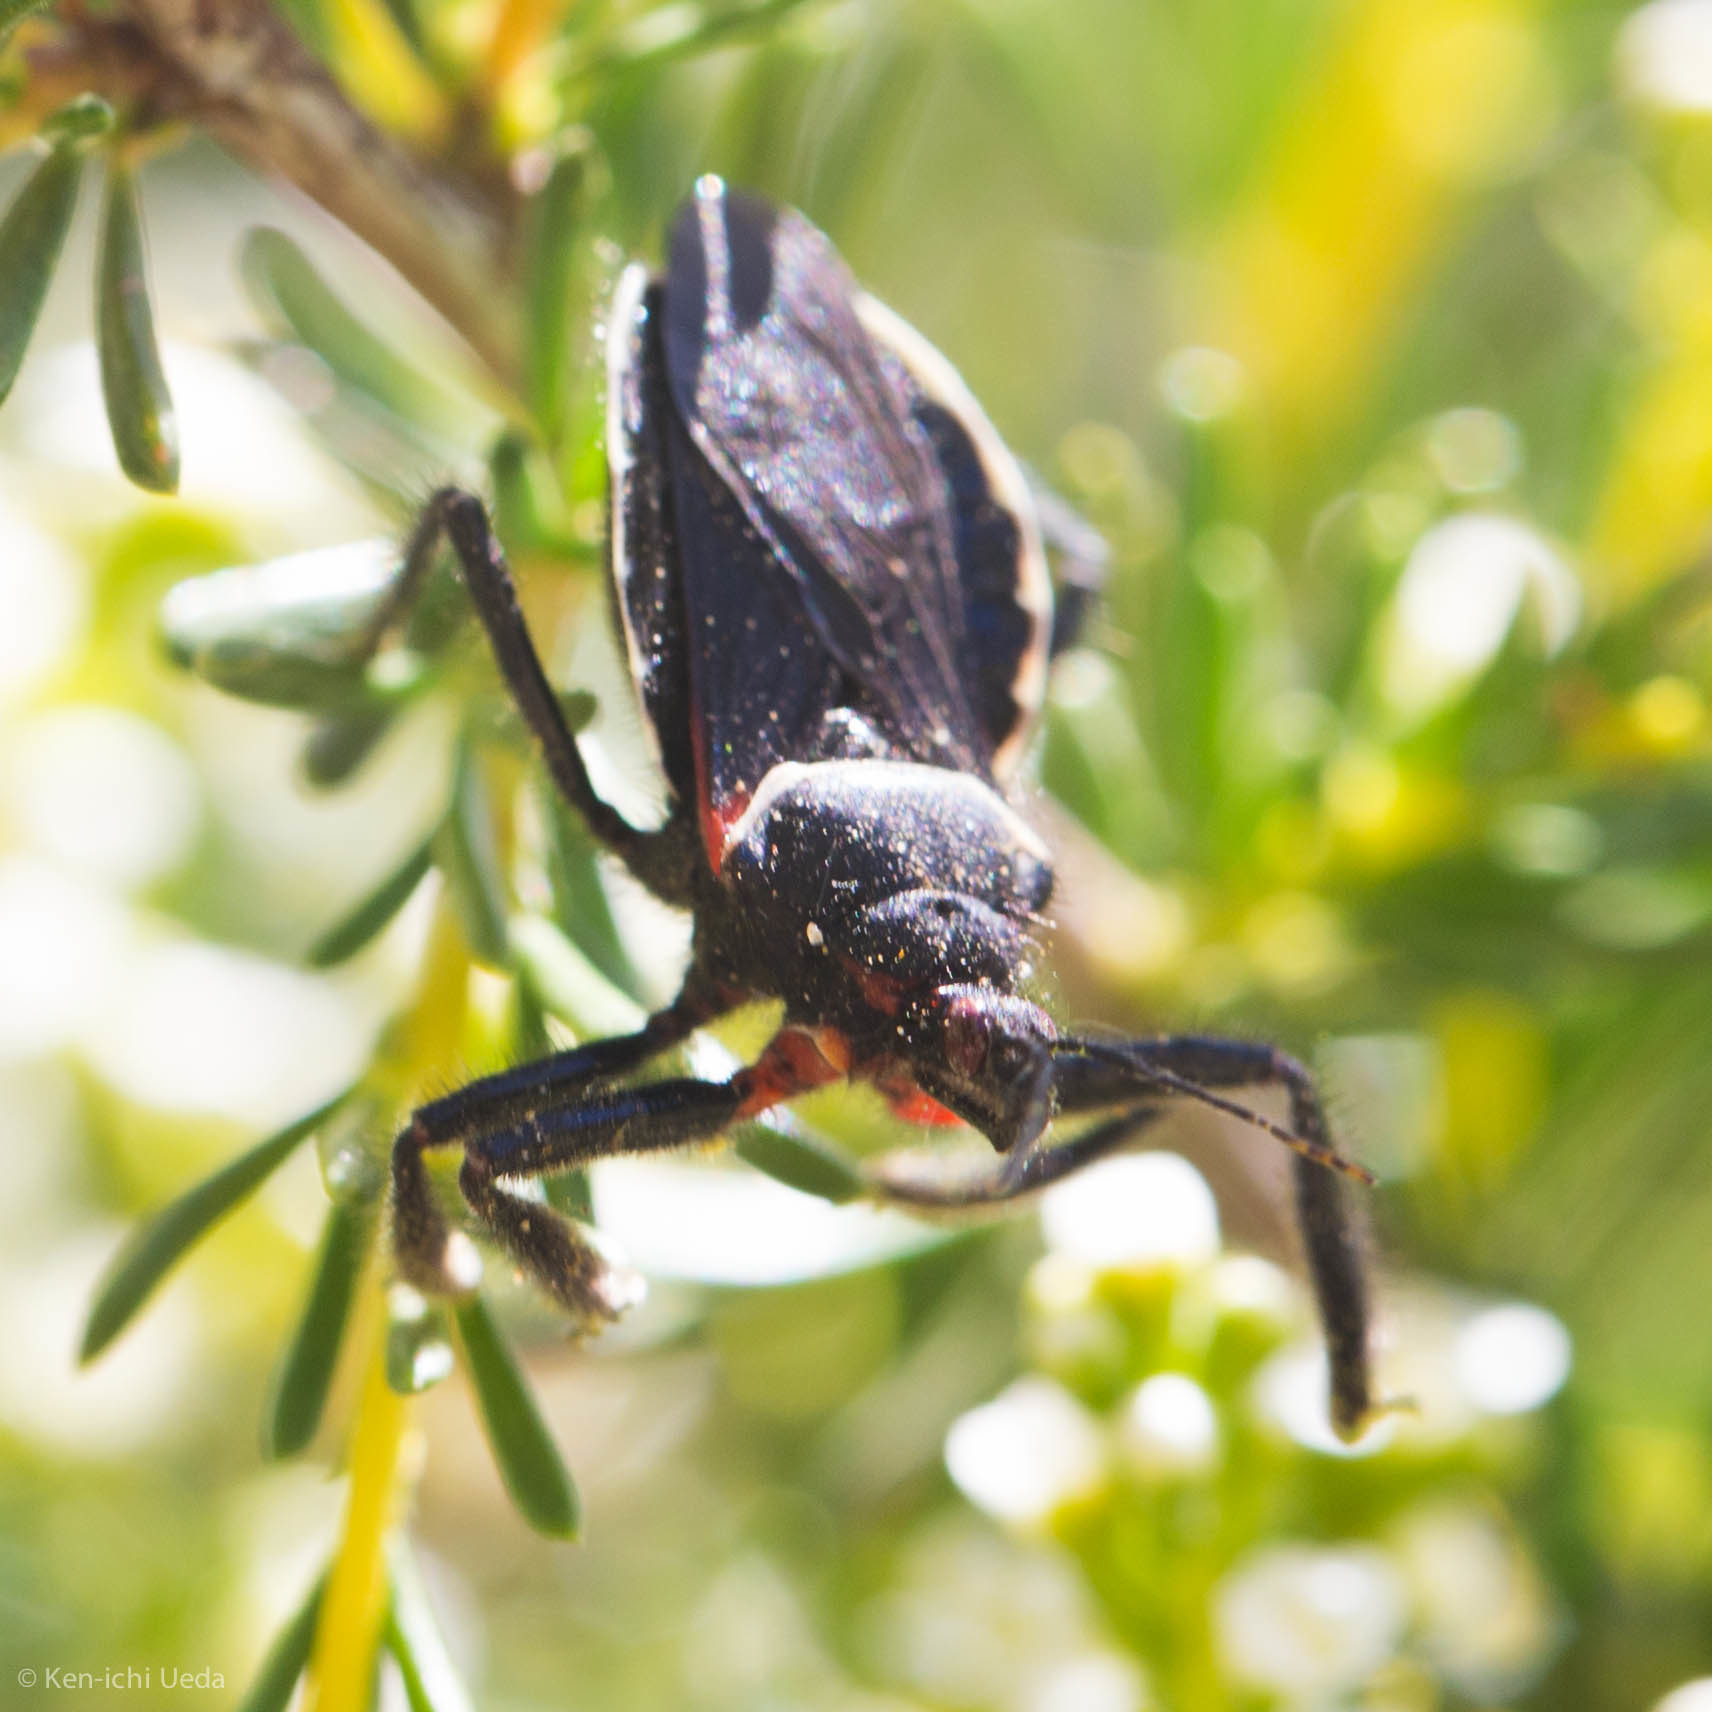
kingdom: Animalia
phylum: Arthropoda
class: Insecta
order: Hemiptera
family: Reduviidae
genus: Apiomerus
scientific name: Apiomerus californicus
